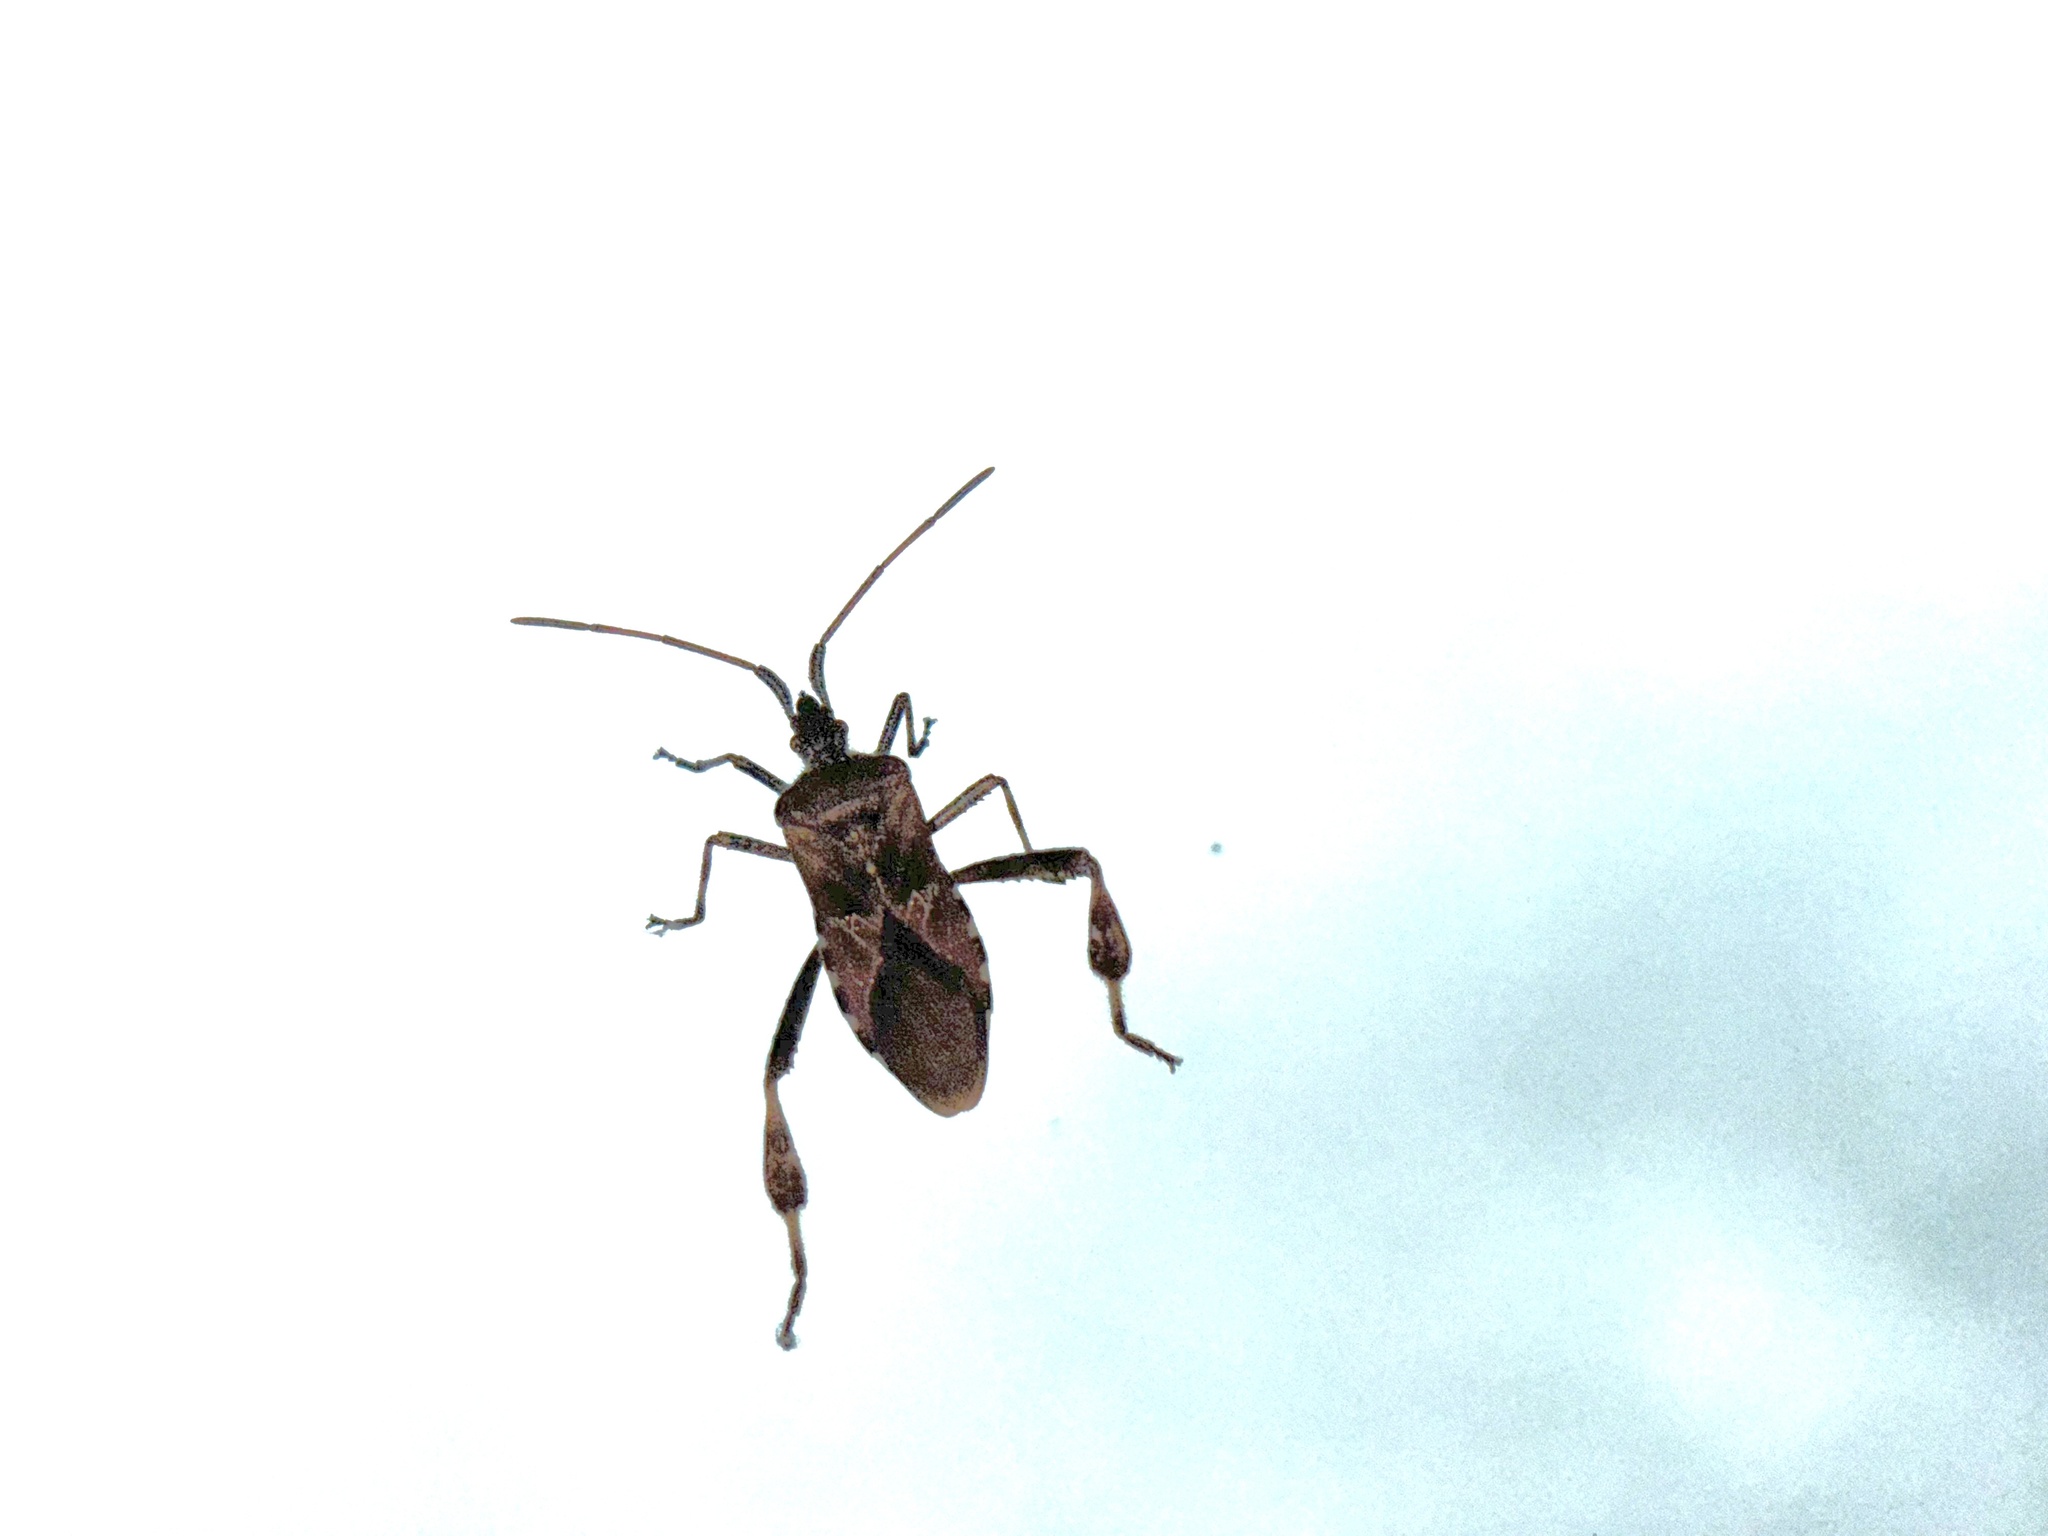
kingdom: Animalia
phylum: Arthropoda
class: Insecta
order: Hemiptera
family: Coreidae
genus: Leptoglossus
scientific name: Leptoglossus occidentalis
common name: Western conifer-seed bug
